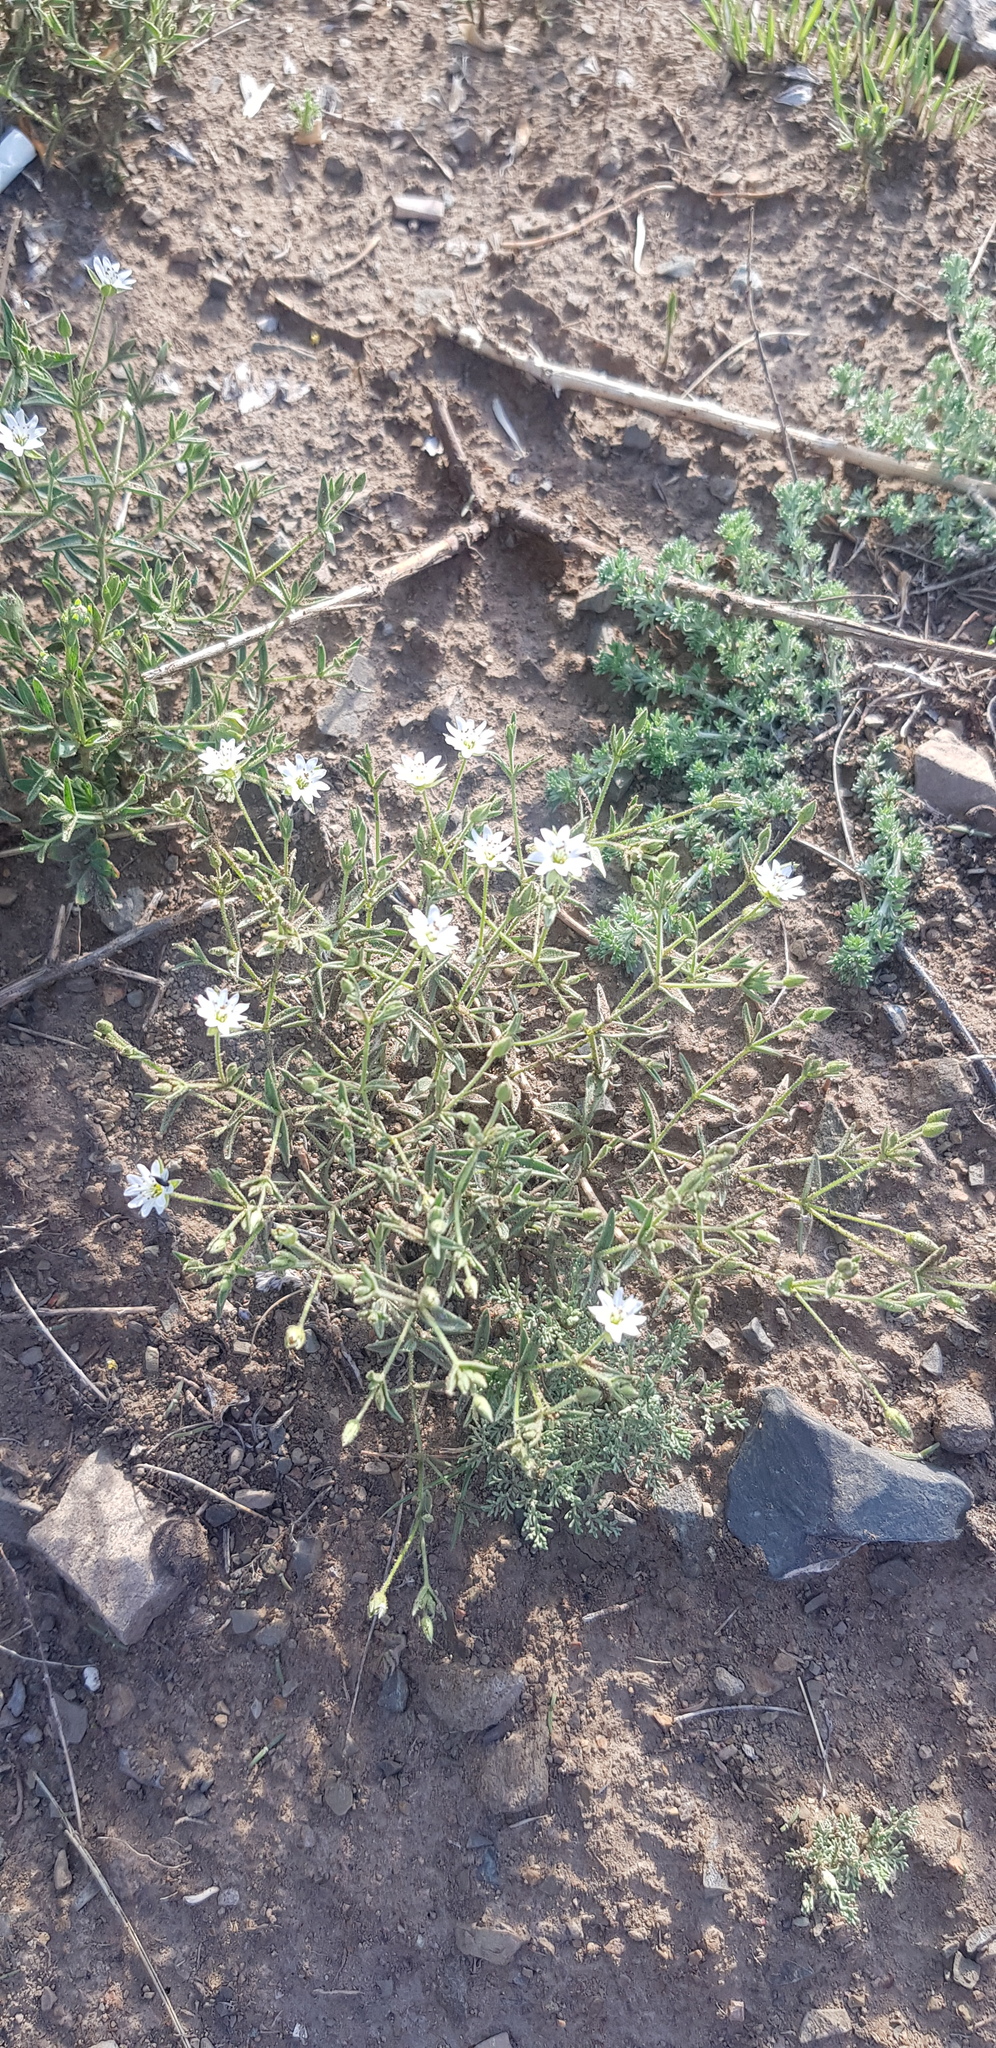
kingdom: Plantae
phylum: Tracheophyta
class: Magnoliopsida
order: Caryophyllales
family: Caryophyllaceae
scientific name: Caryophyllaceae
